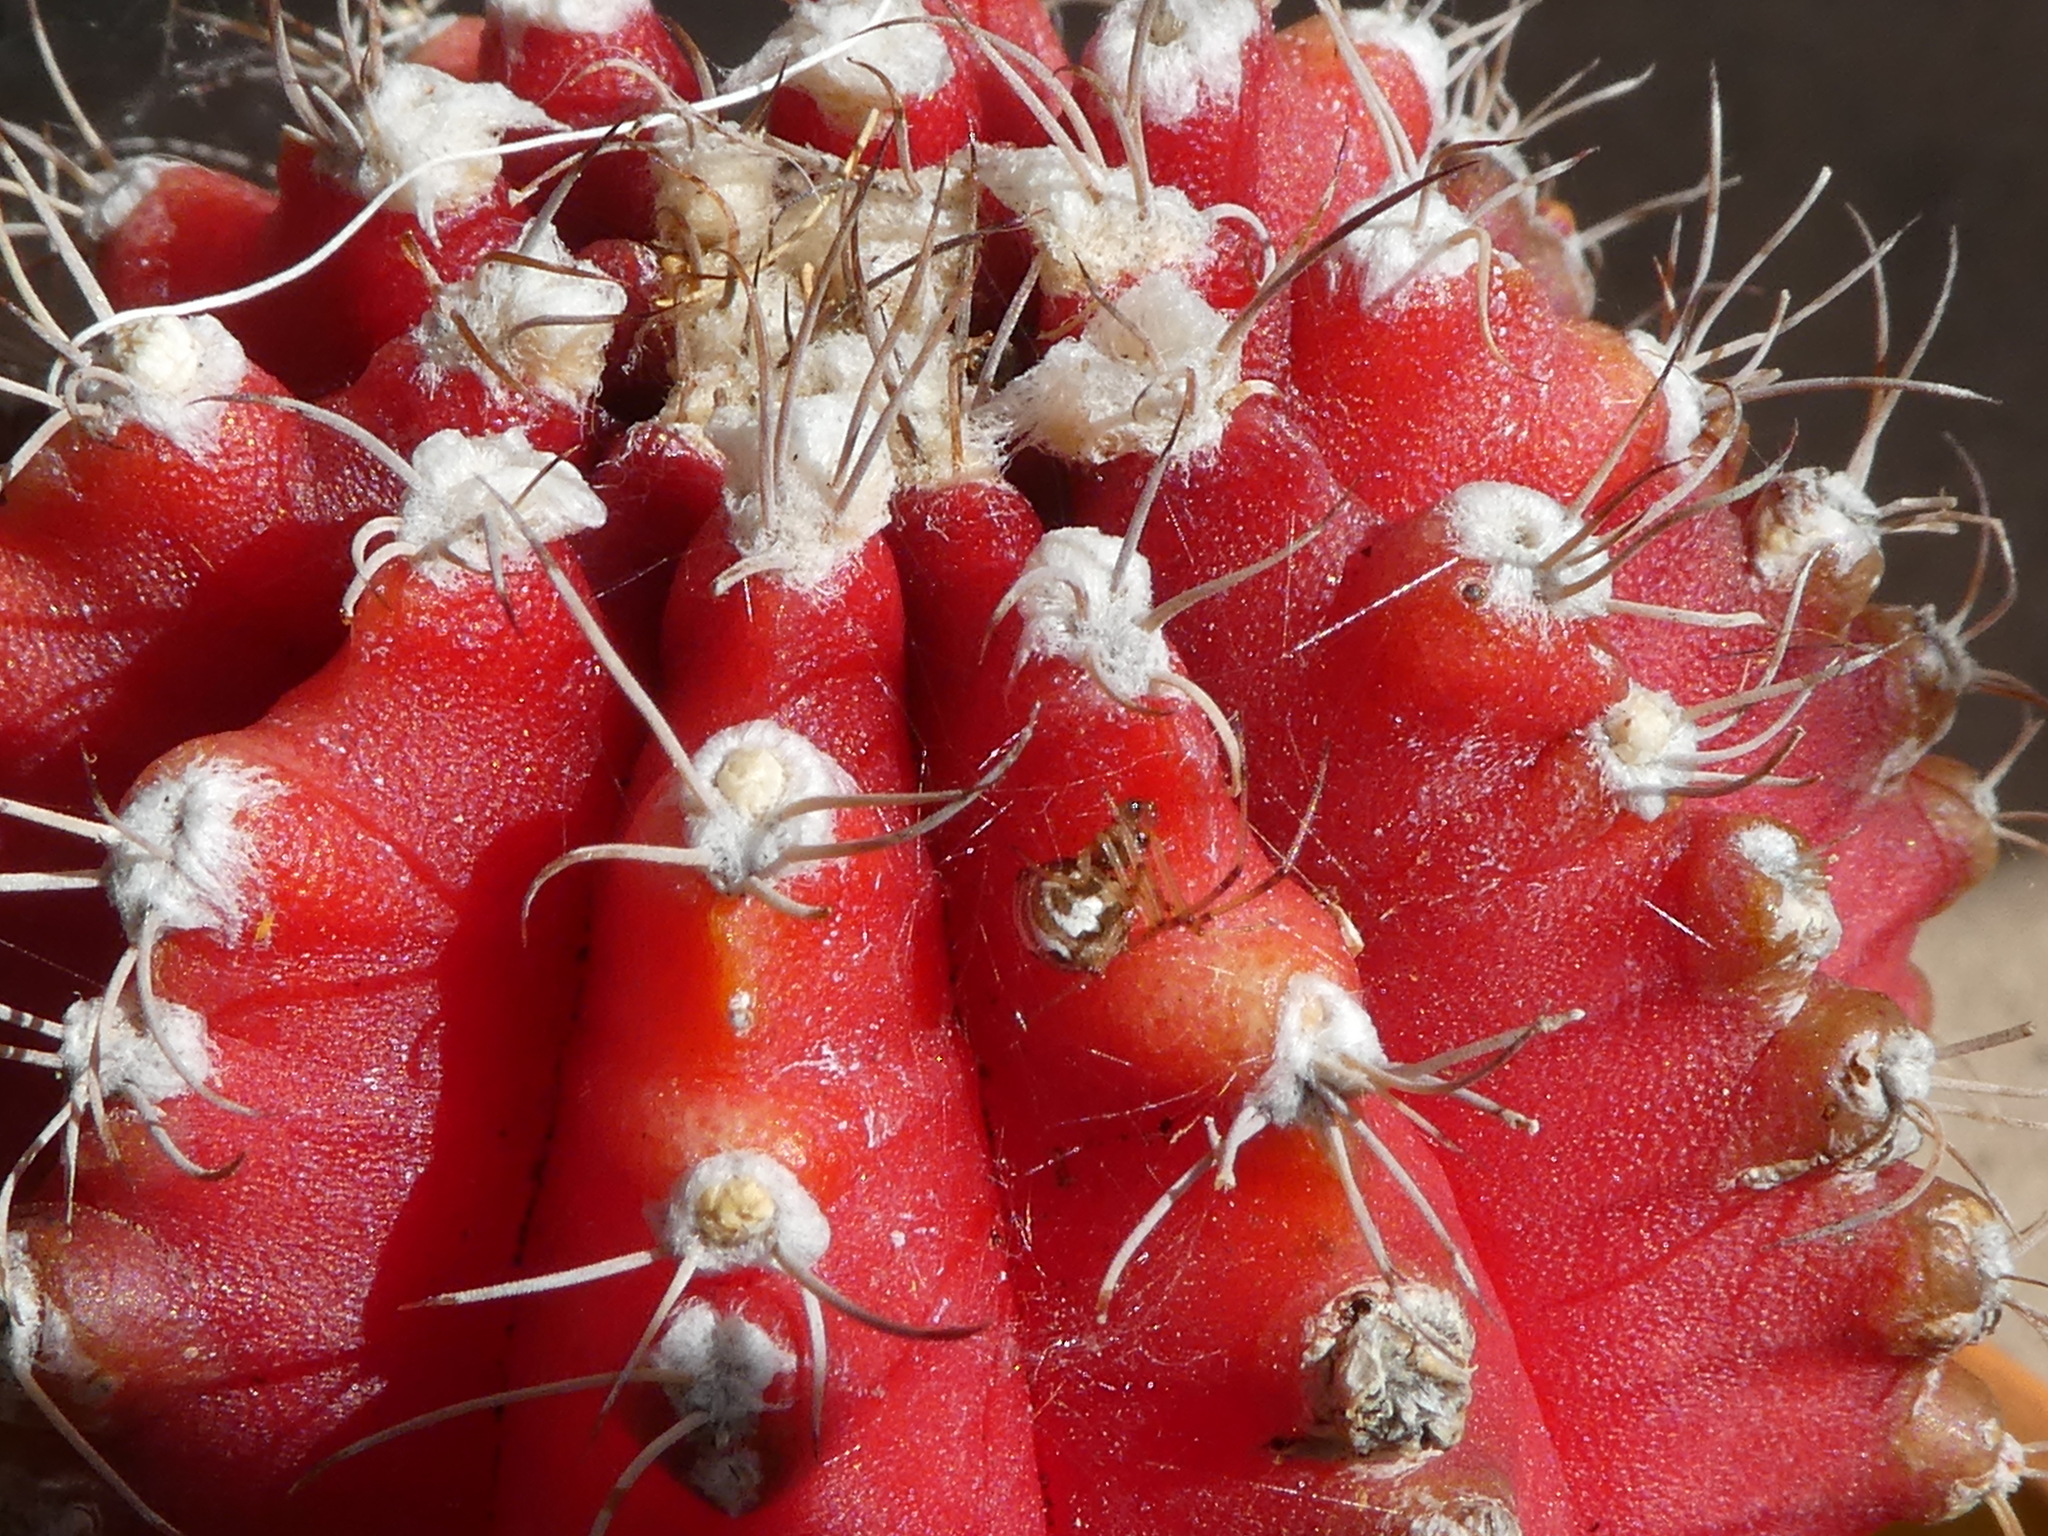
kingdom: Animalia
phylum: Arthropoda
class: Arachnida
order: Araneae
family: Theridiidae
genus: Latrodectus
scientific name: Latrodectus geometricus
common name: Brown widow spider
